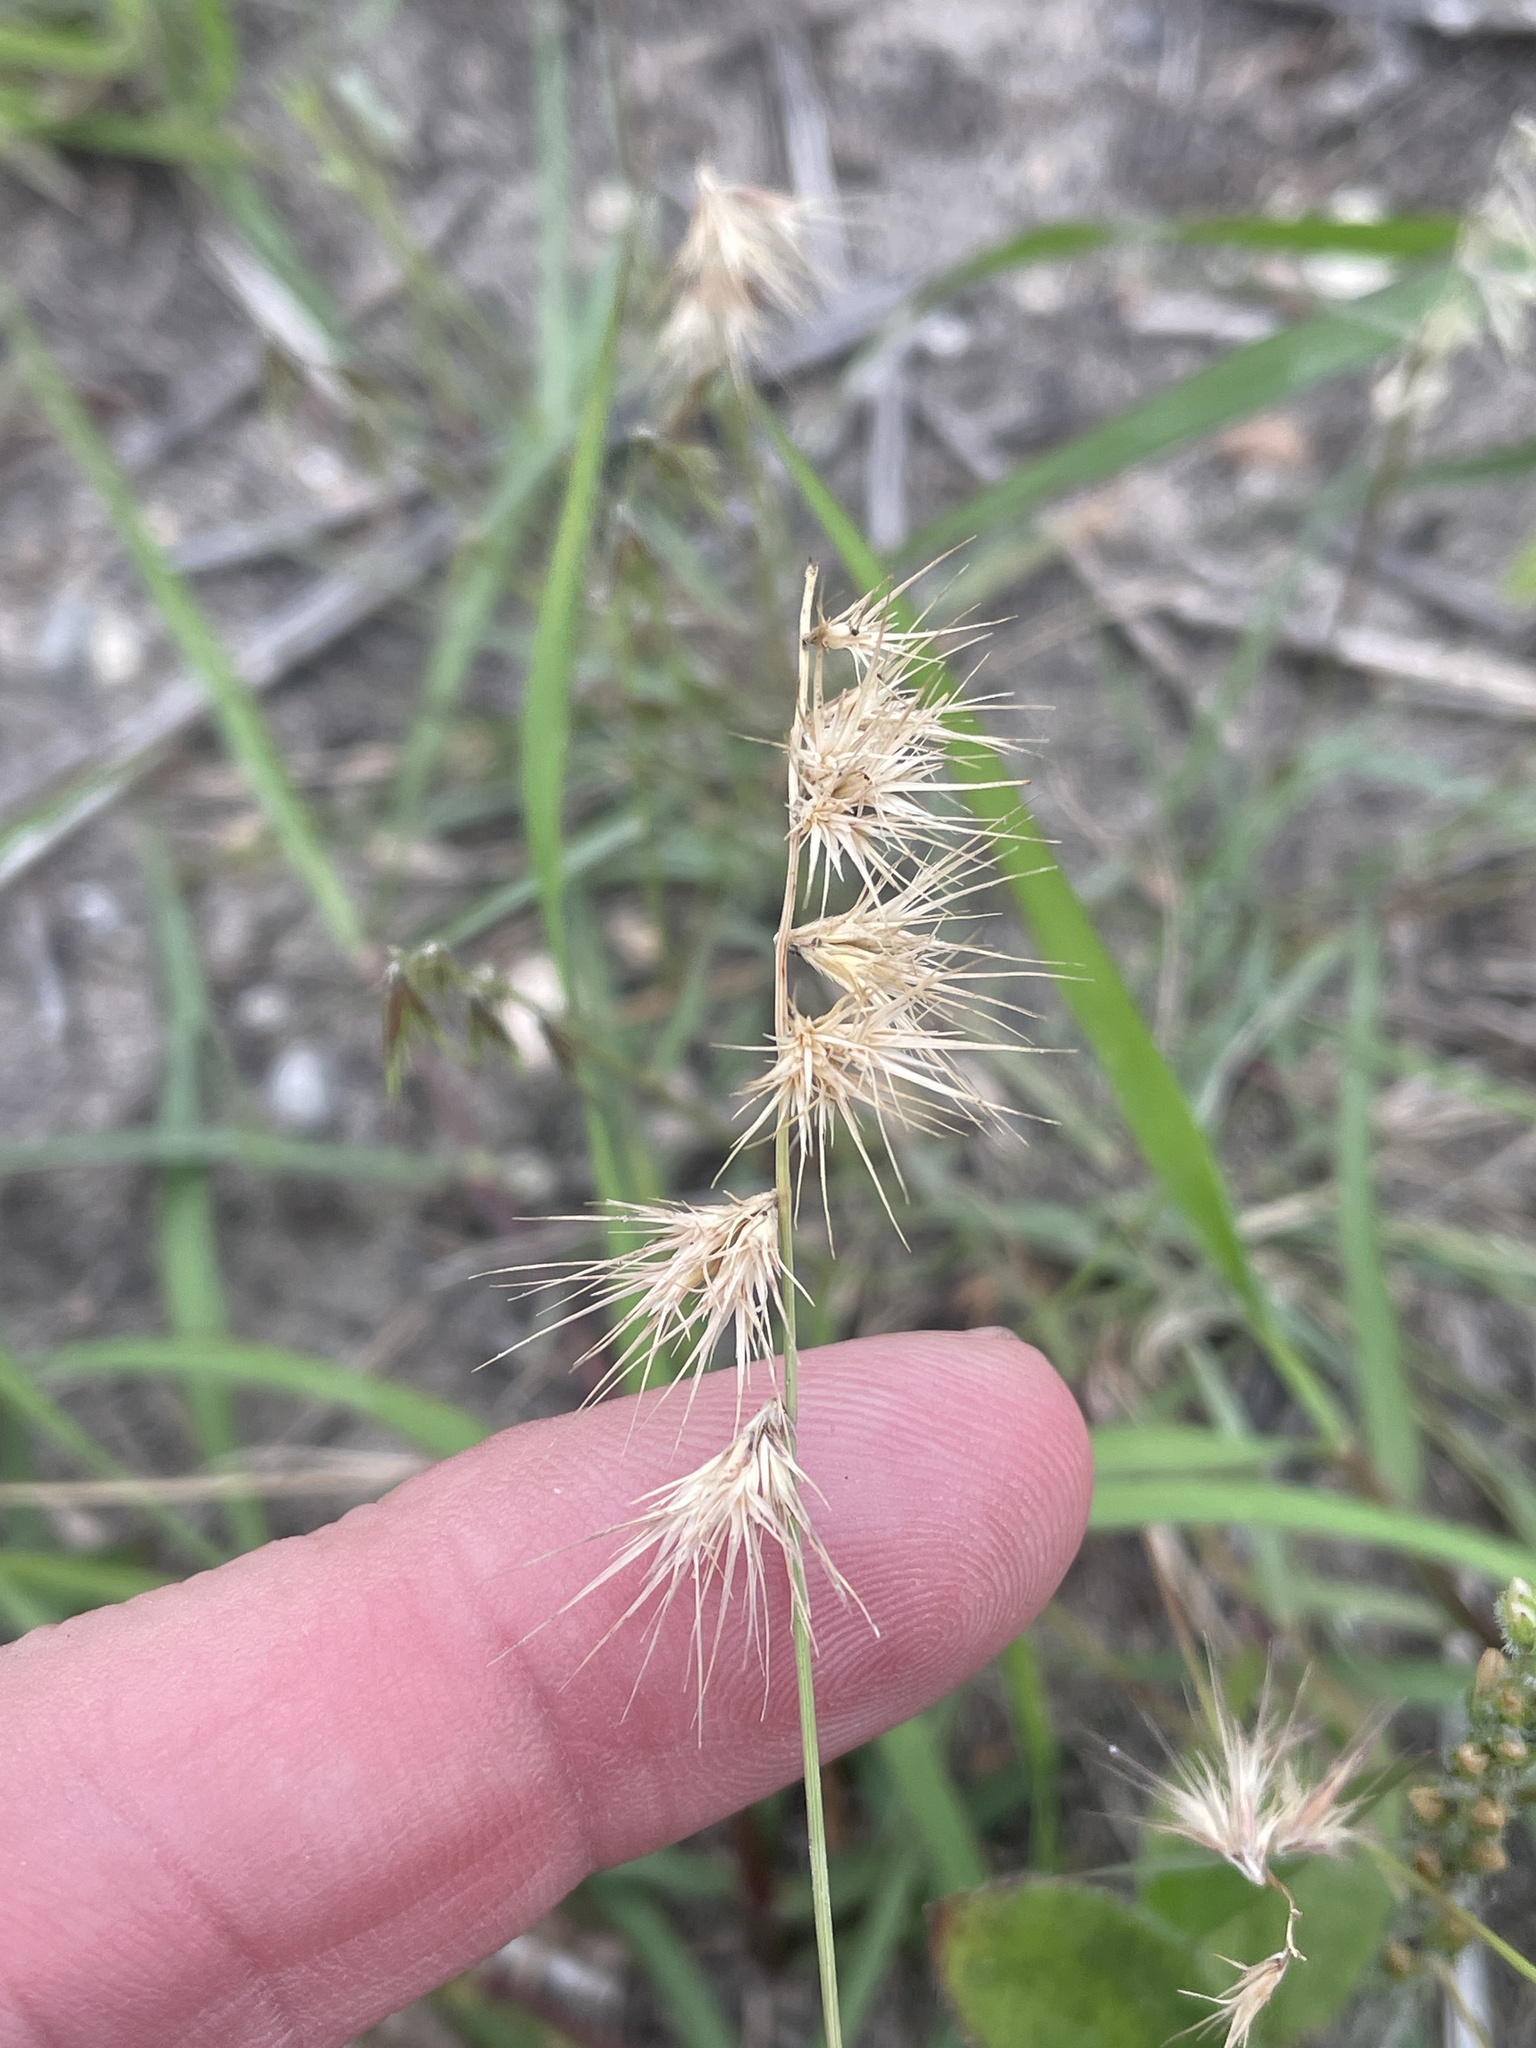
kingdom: Plantae
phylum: Tracheophyta
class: Liliopsida
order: Poales
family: Poaceae
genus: Bouteloua
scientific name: Bouteloua rigidiseta
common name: Texas grama
